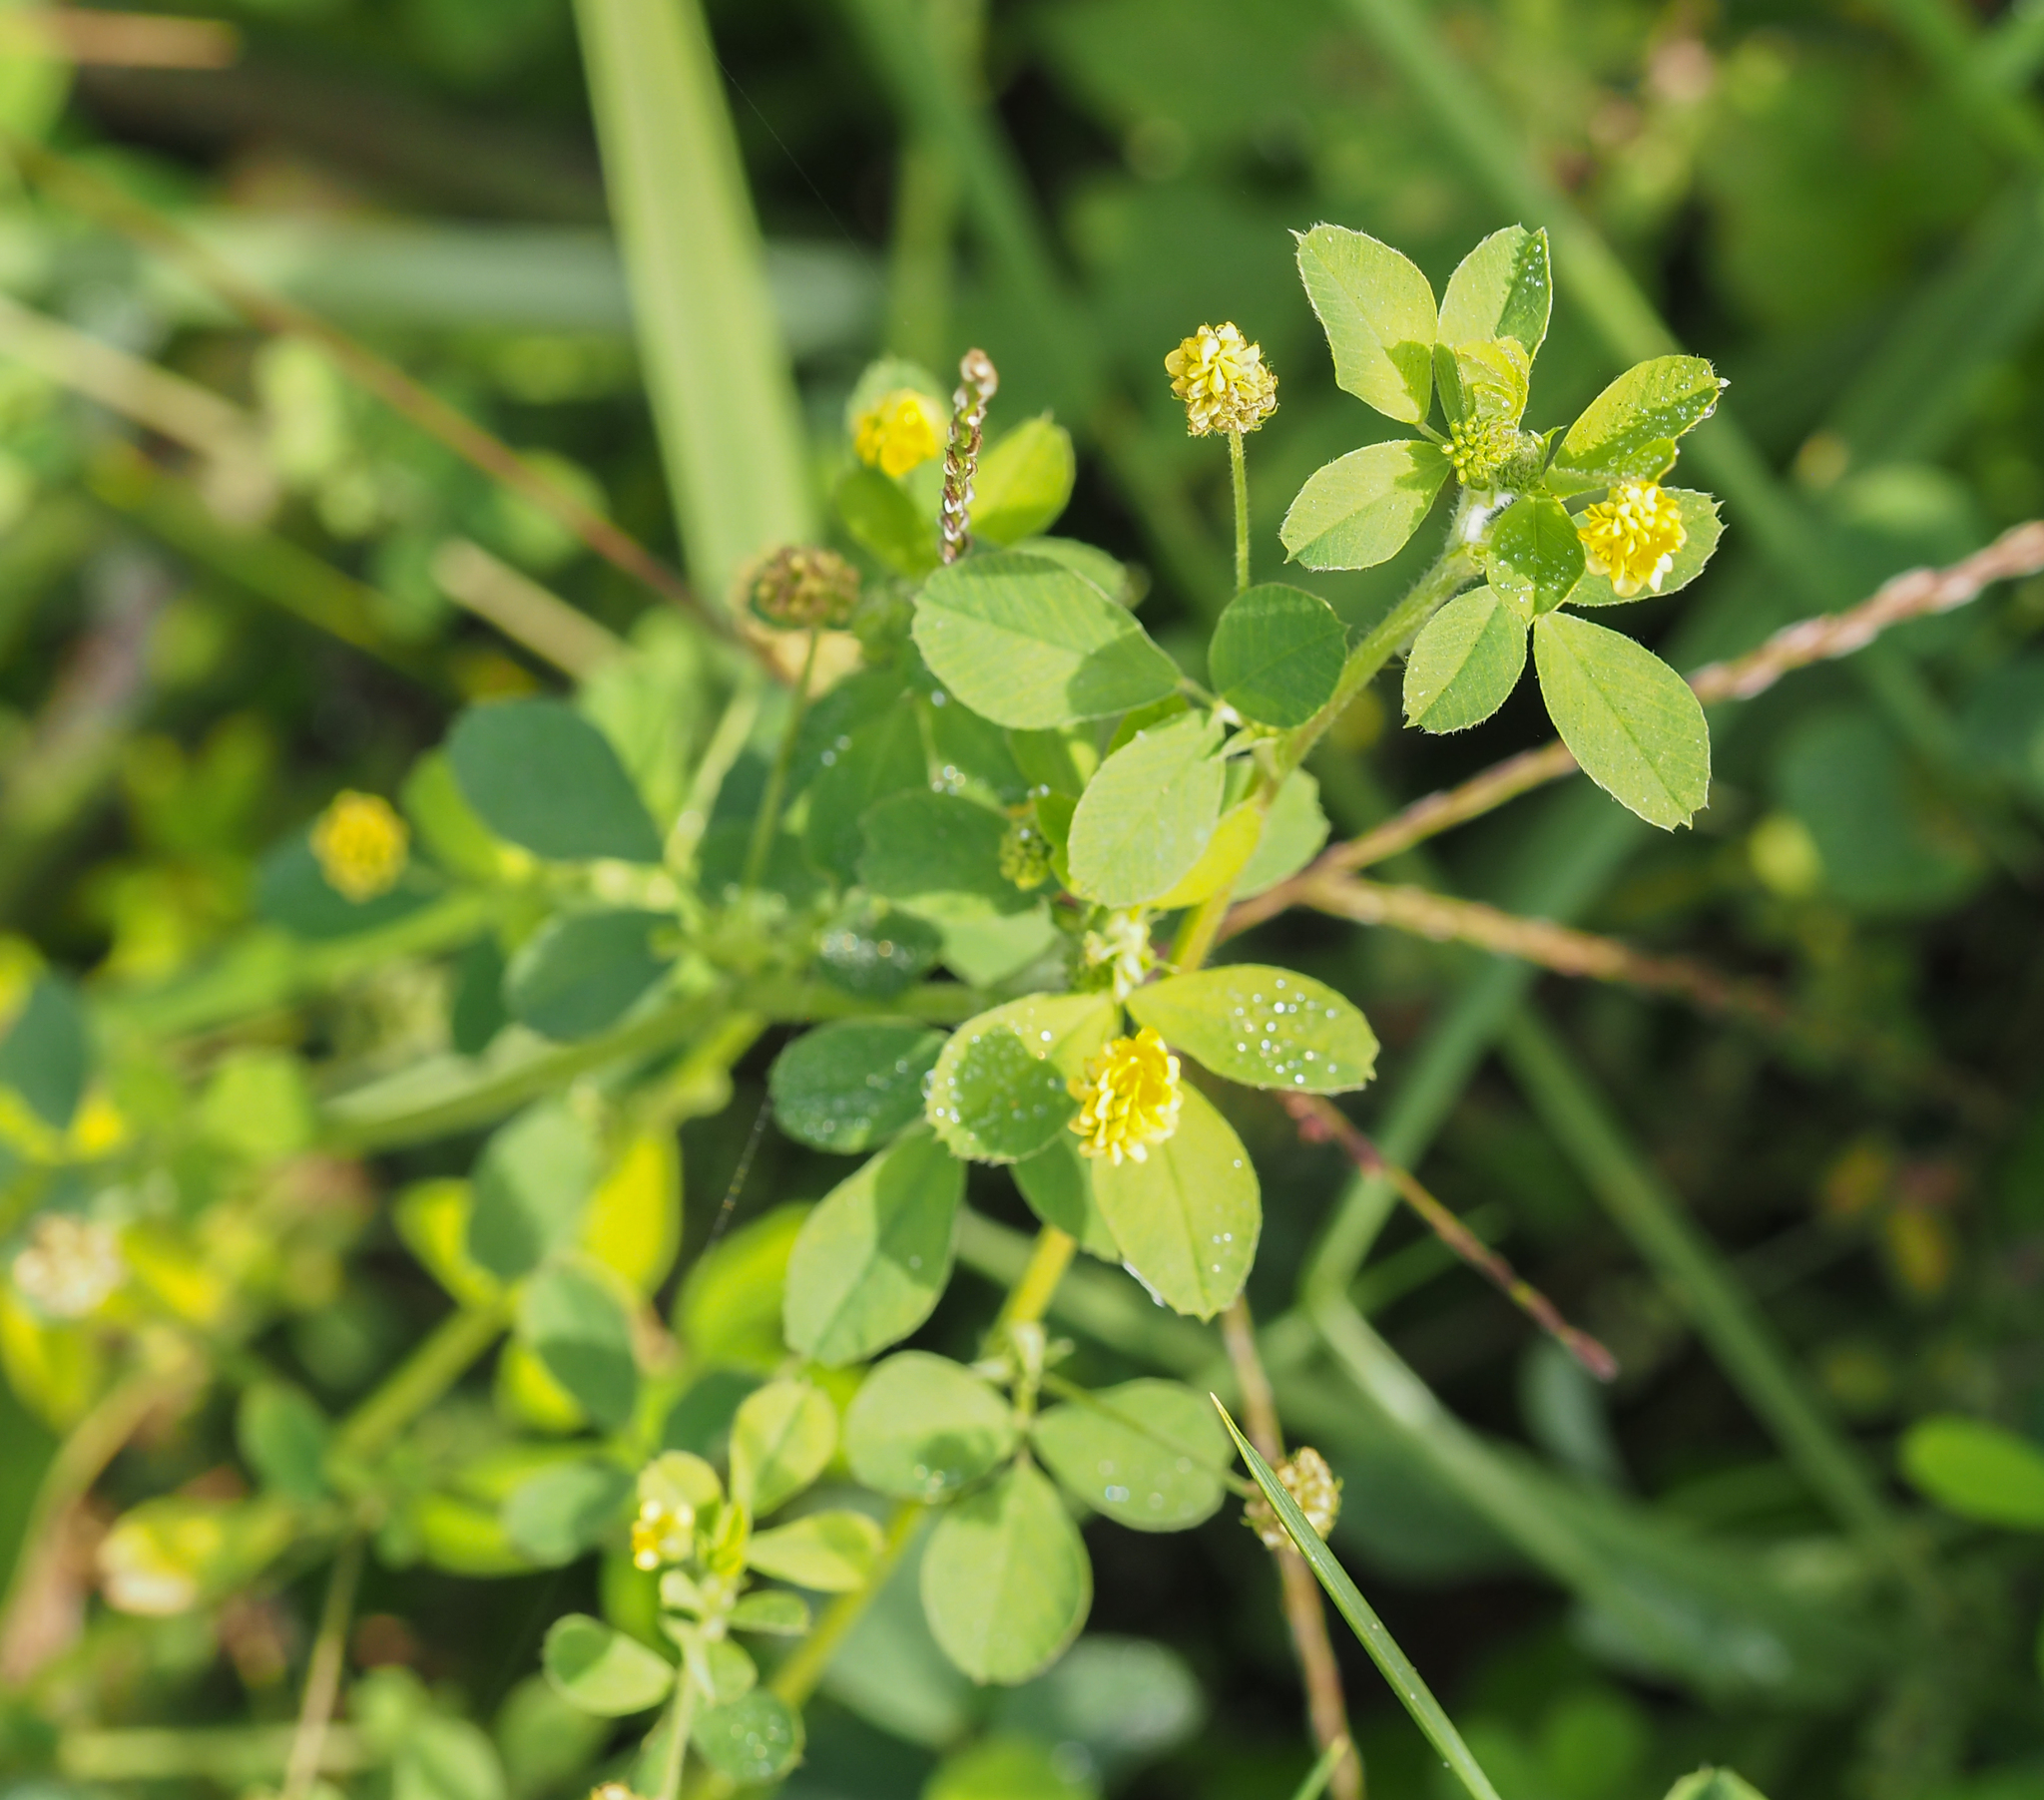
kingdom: Plantae
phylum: Tracheophyta
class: Magnoliopsida
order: Fabales
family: Fabaceae
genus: Medicago
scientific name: Medicago lupulina
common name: Black medick
